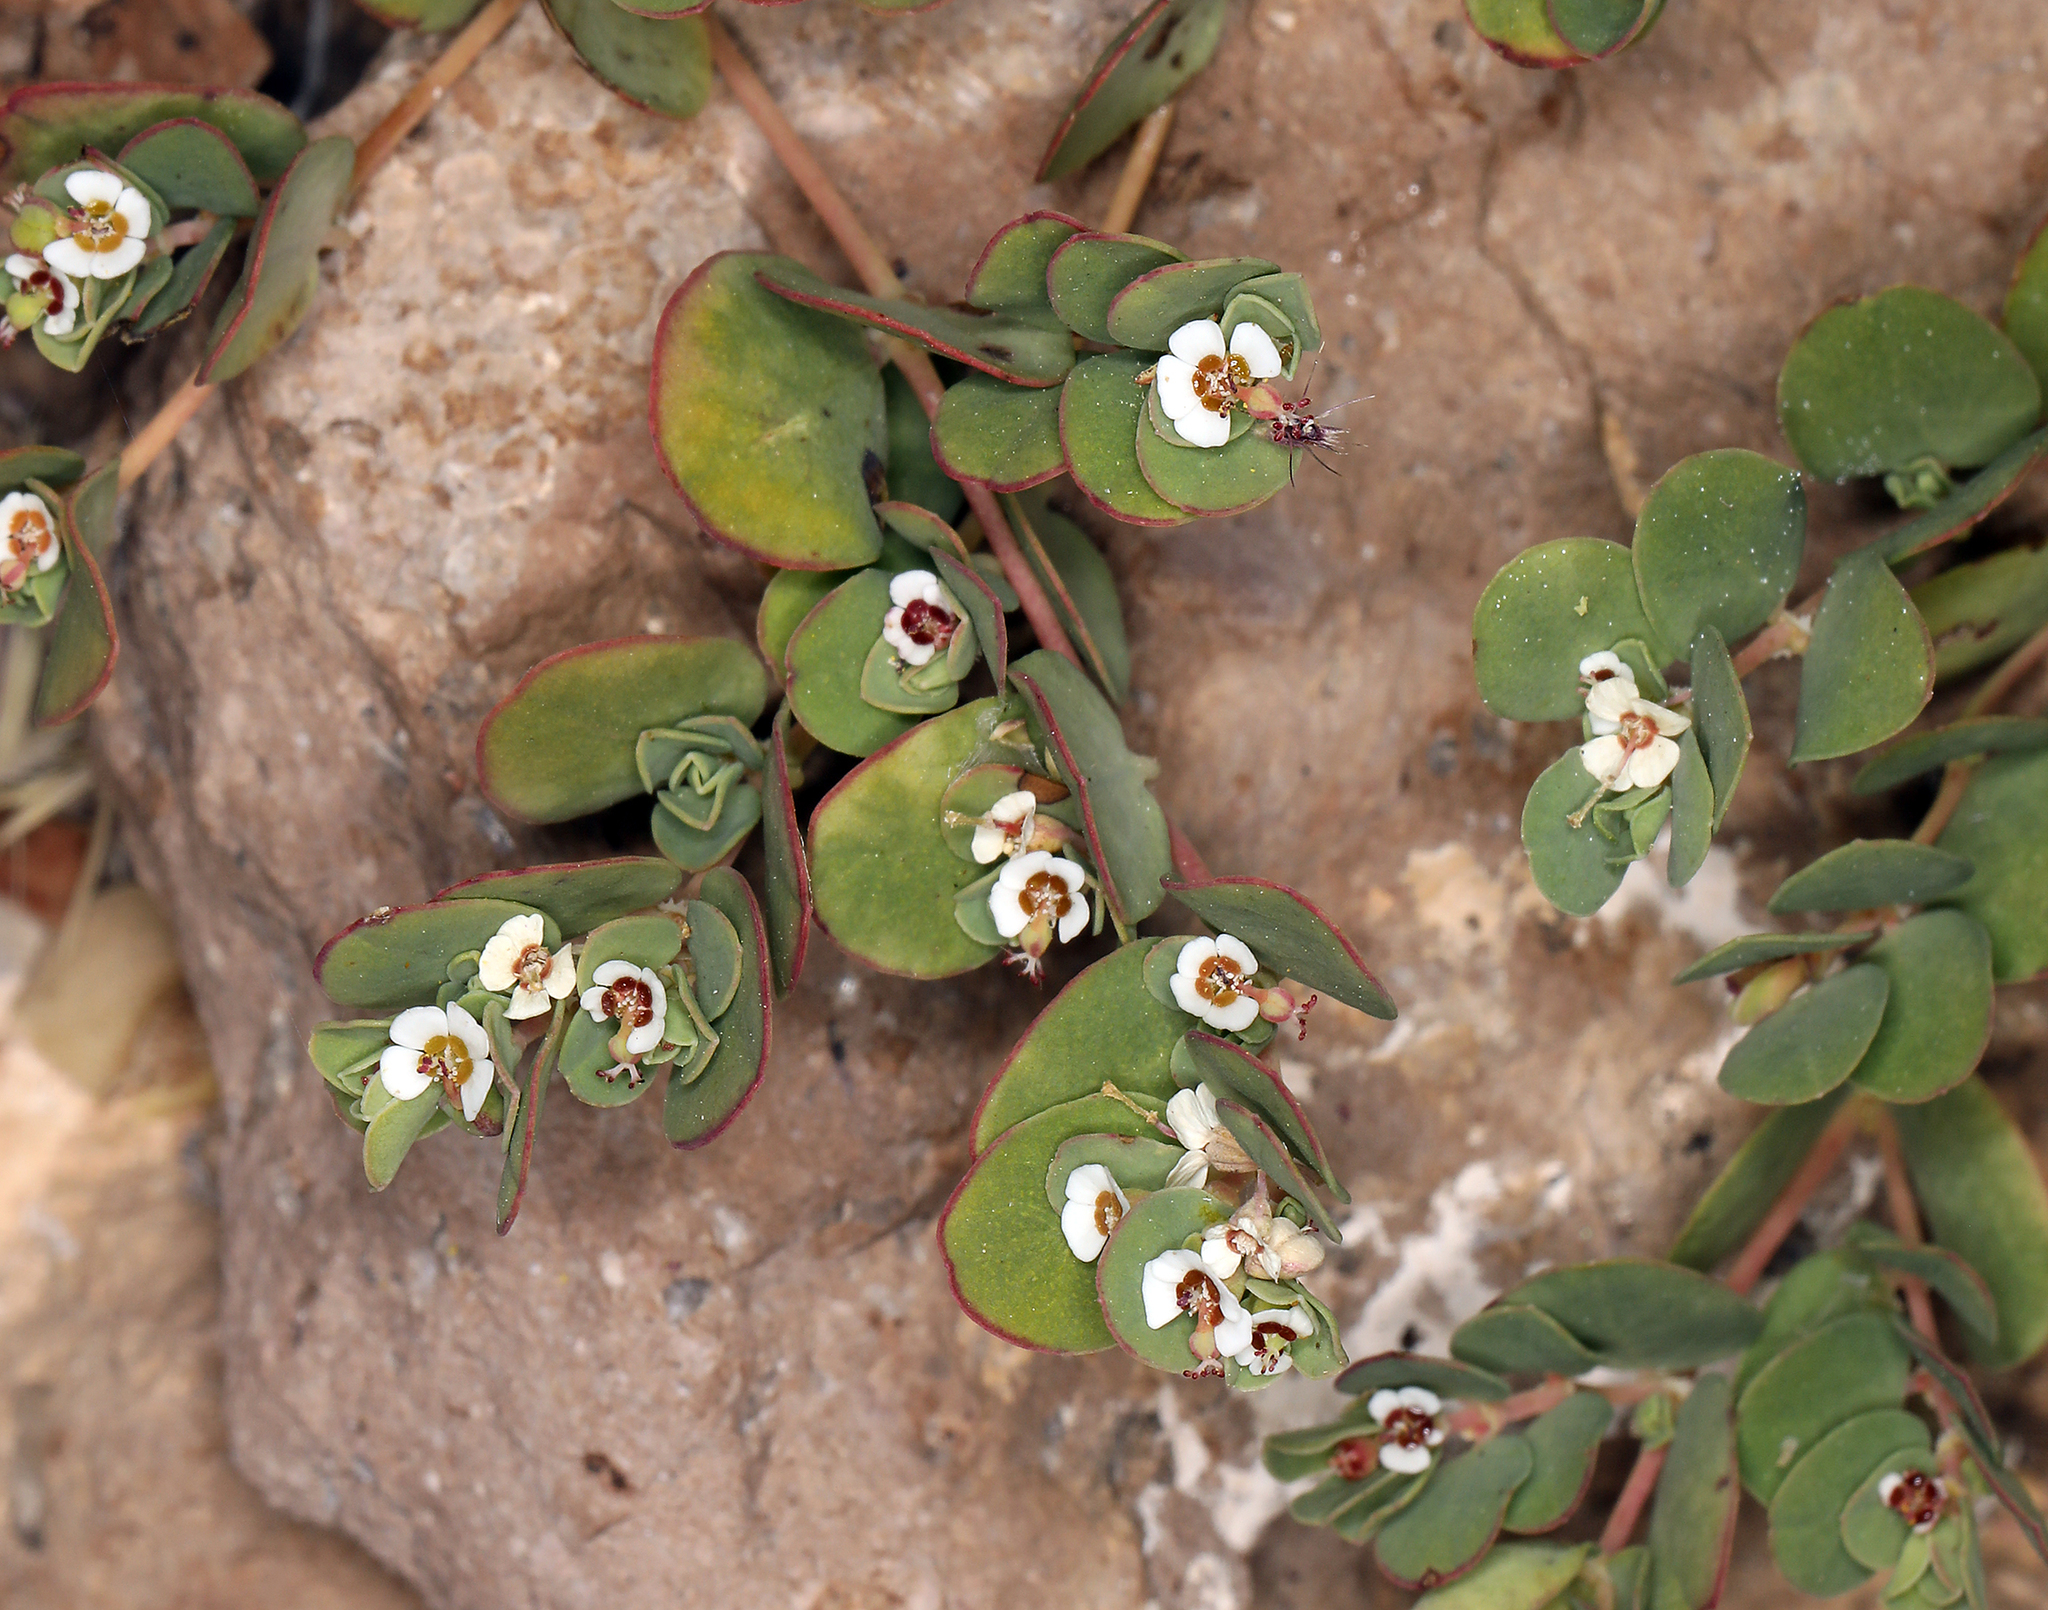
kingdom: Plantae
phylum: Tracheophyta
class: Magnoliopsida
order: Malpighiales
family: Euphorbiaceae
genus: Euphorbia
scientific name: Euphorbia albomarginata
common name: Whitemargin sandmat
